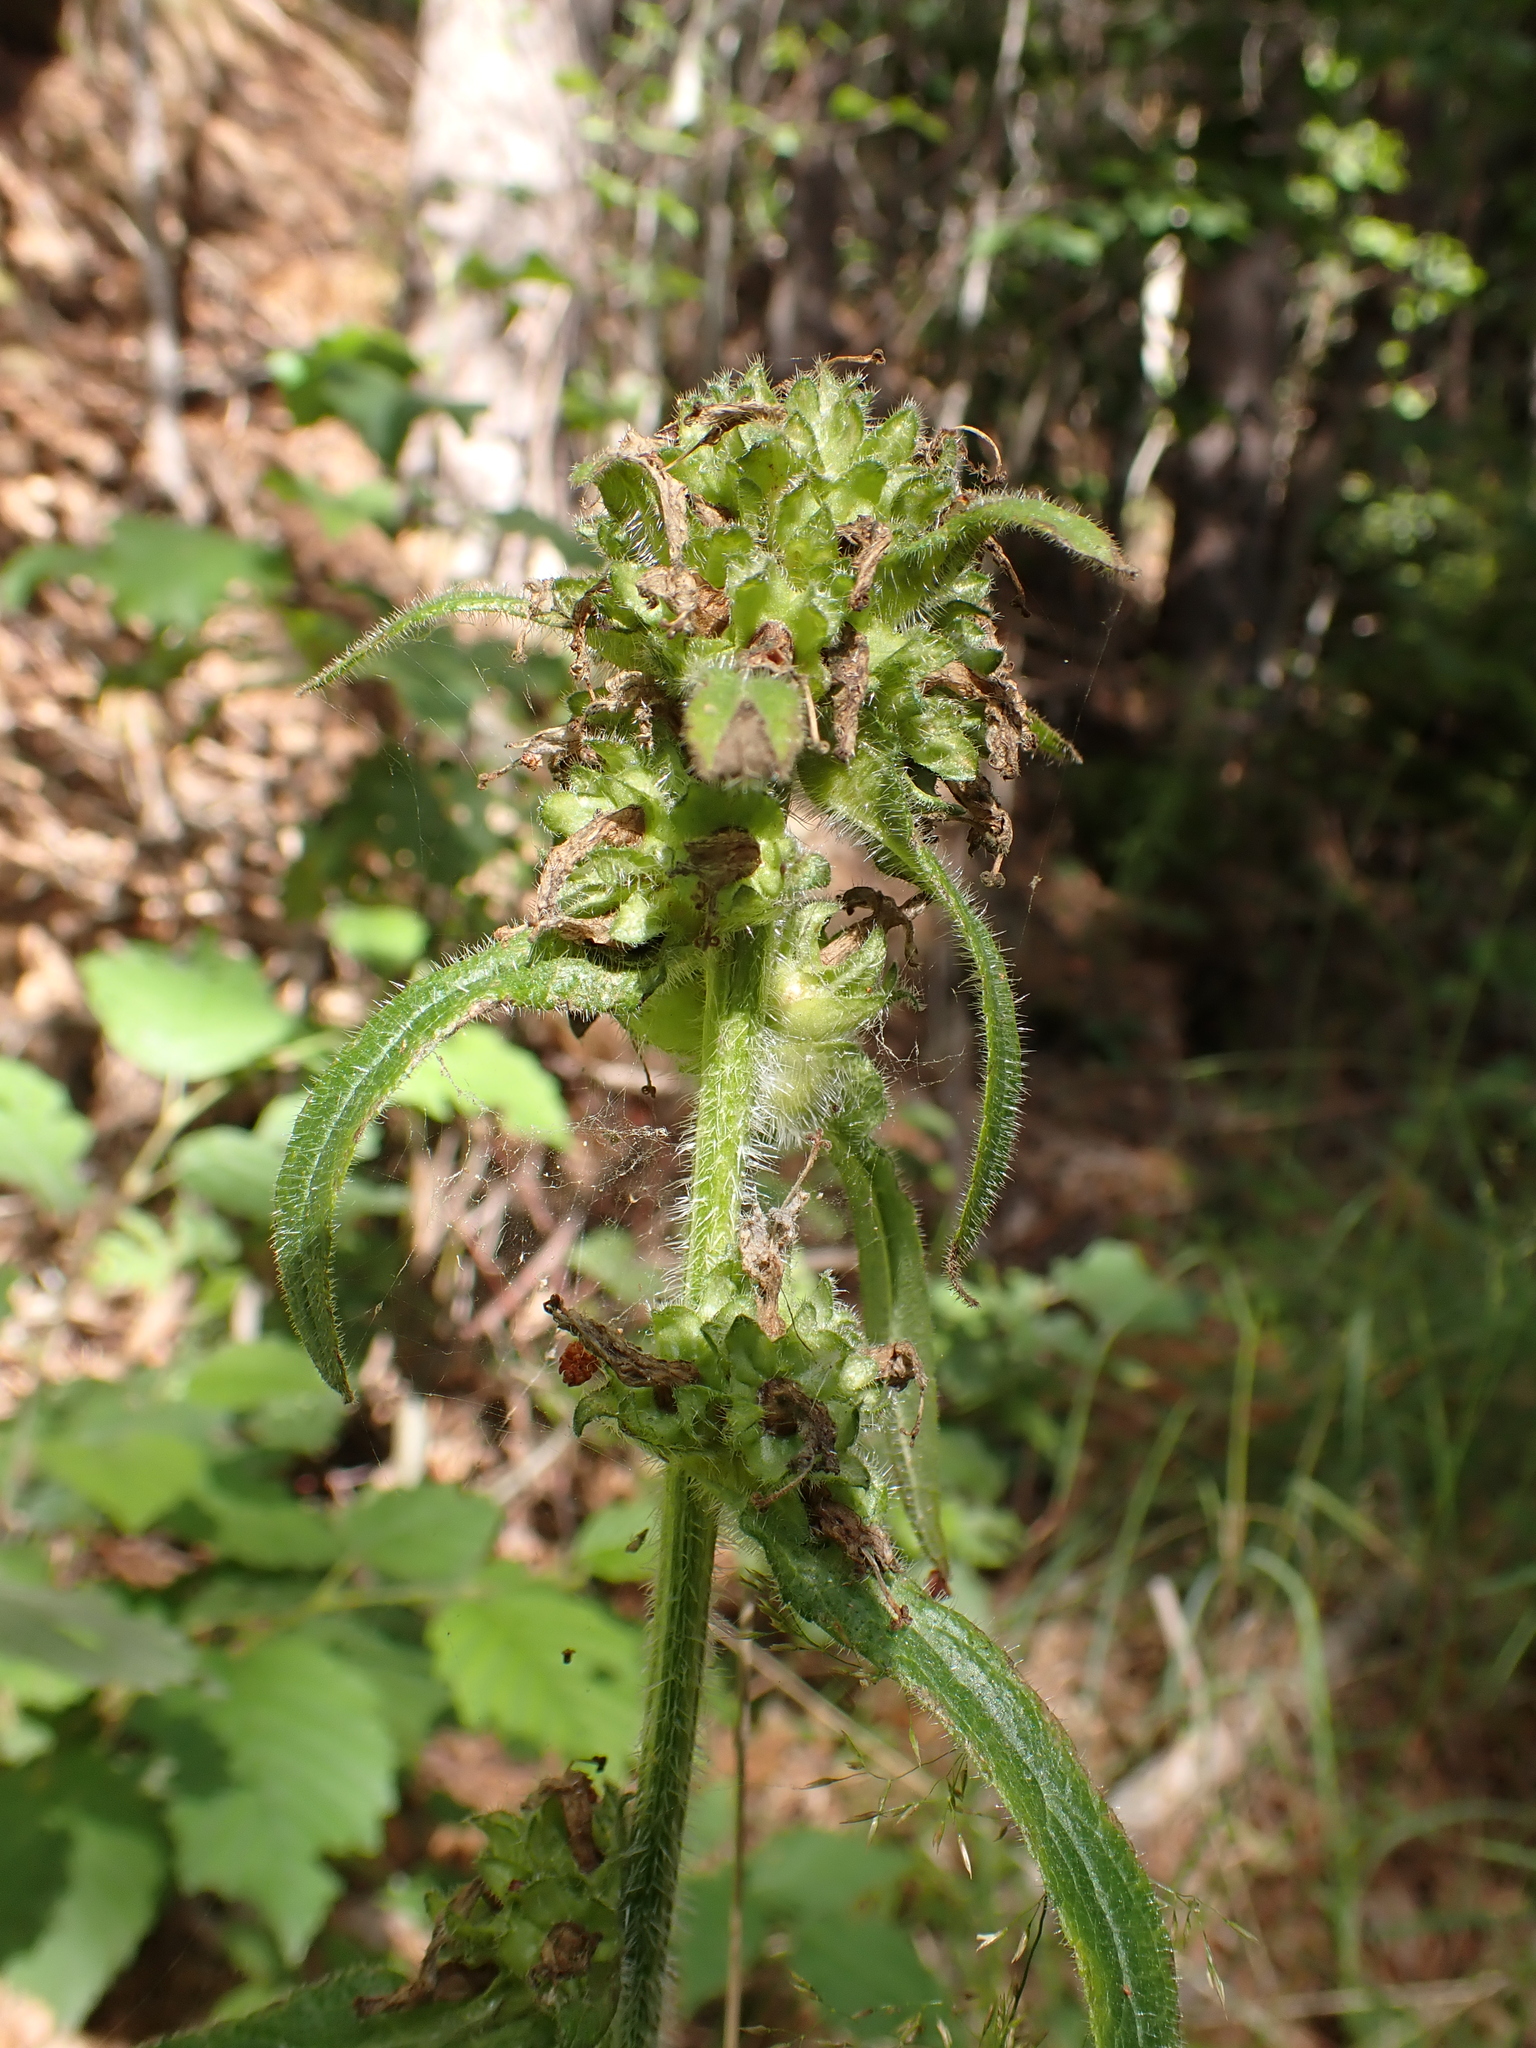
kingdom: Plantae
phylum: Tracheophyta
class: Magnoliopsida
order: Asterales
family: Campanulaceae
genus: Campanula
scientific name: Campanula cervicaria
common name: Bristly bellflower
